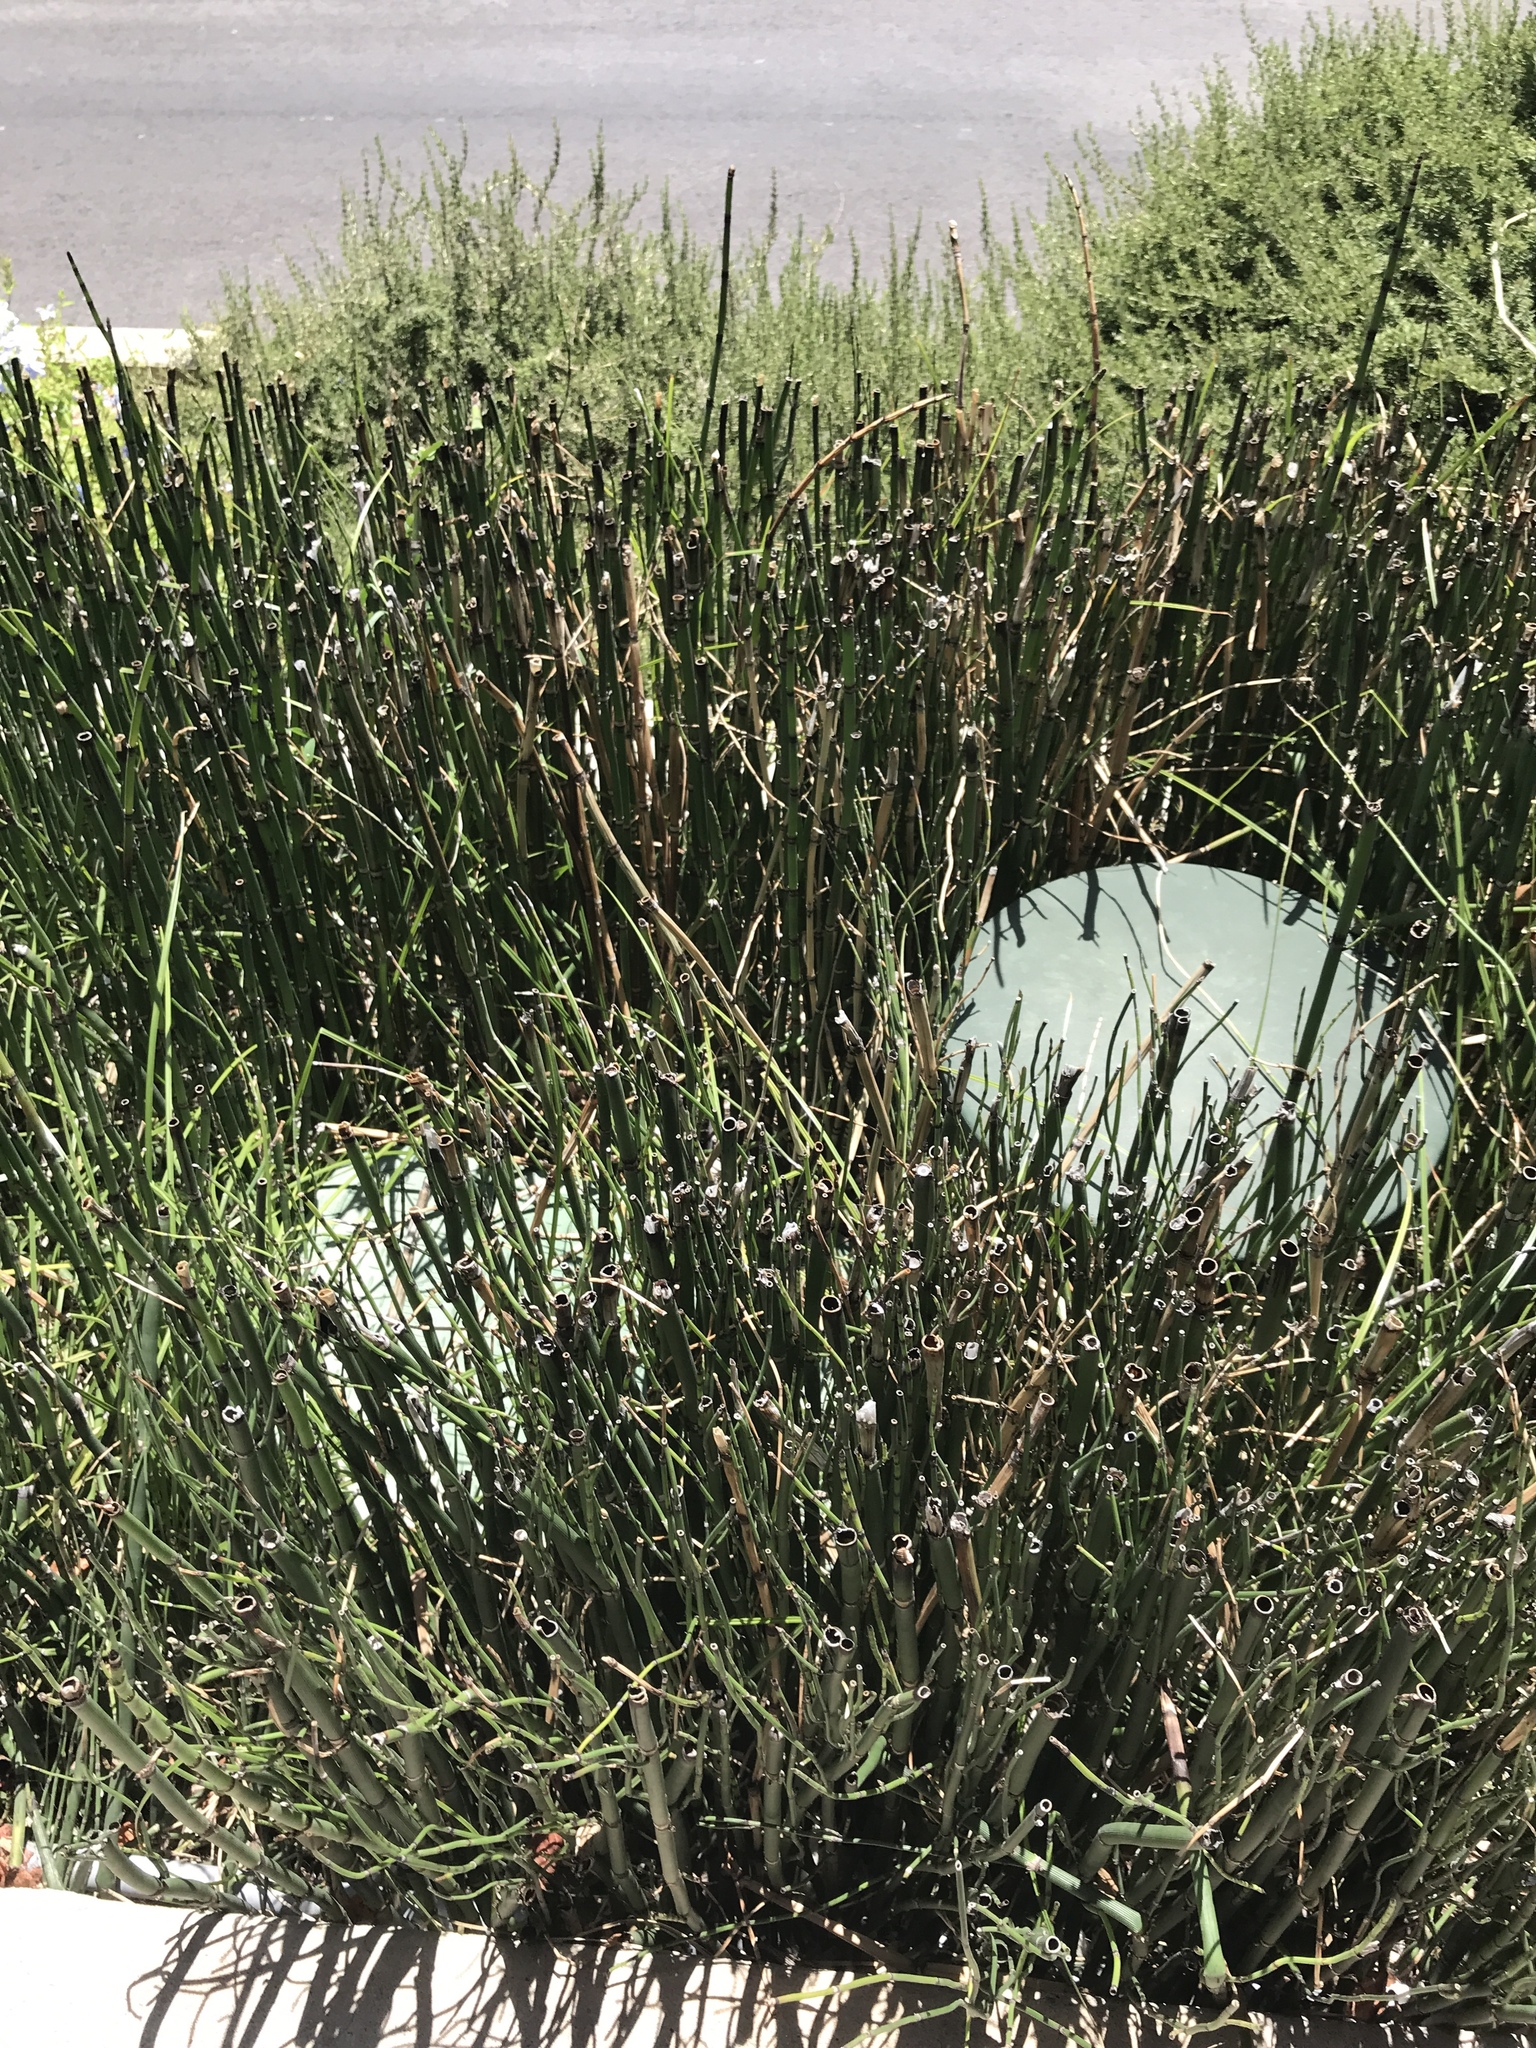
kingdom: Plantae
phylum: Tracheophyta
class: Polypodiopsida
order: Equisetales
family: Equisetaceae
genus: Equisetum
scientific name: Equisetum praealtum
